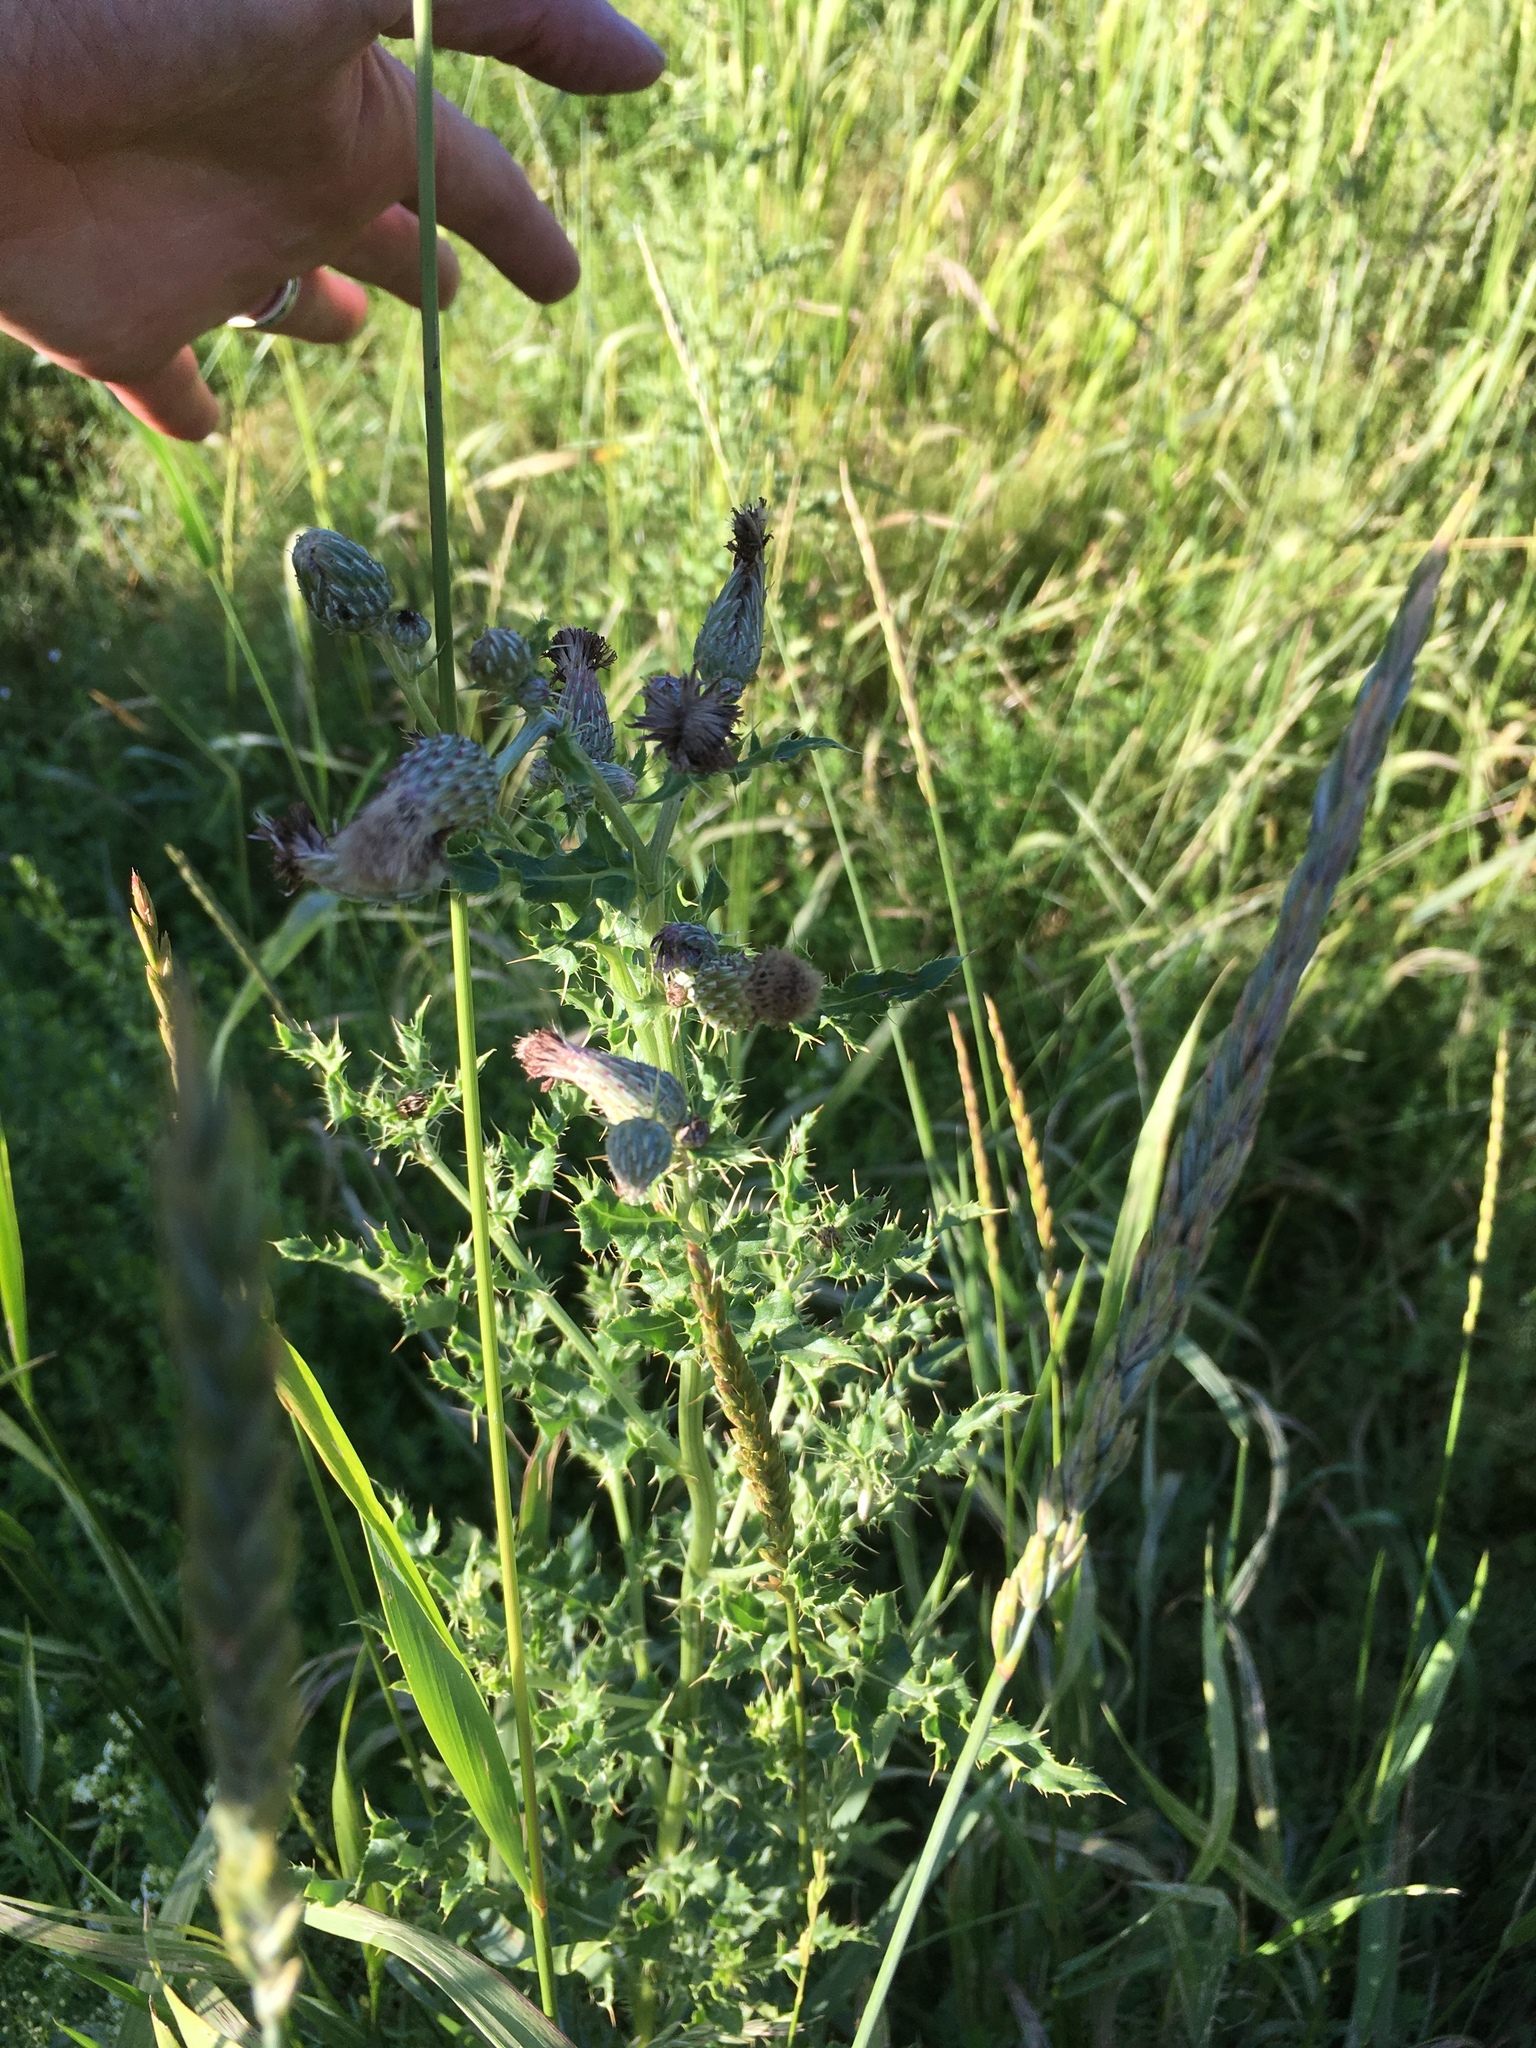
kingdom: Plantae
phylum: Tracheophyta
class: Magnoliopsida
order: Asterales
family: Asteraceae
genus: Cirsium
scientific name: Cirsium arvense
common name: Creeping thistle
